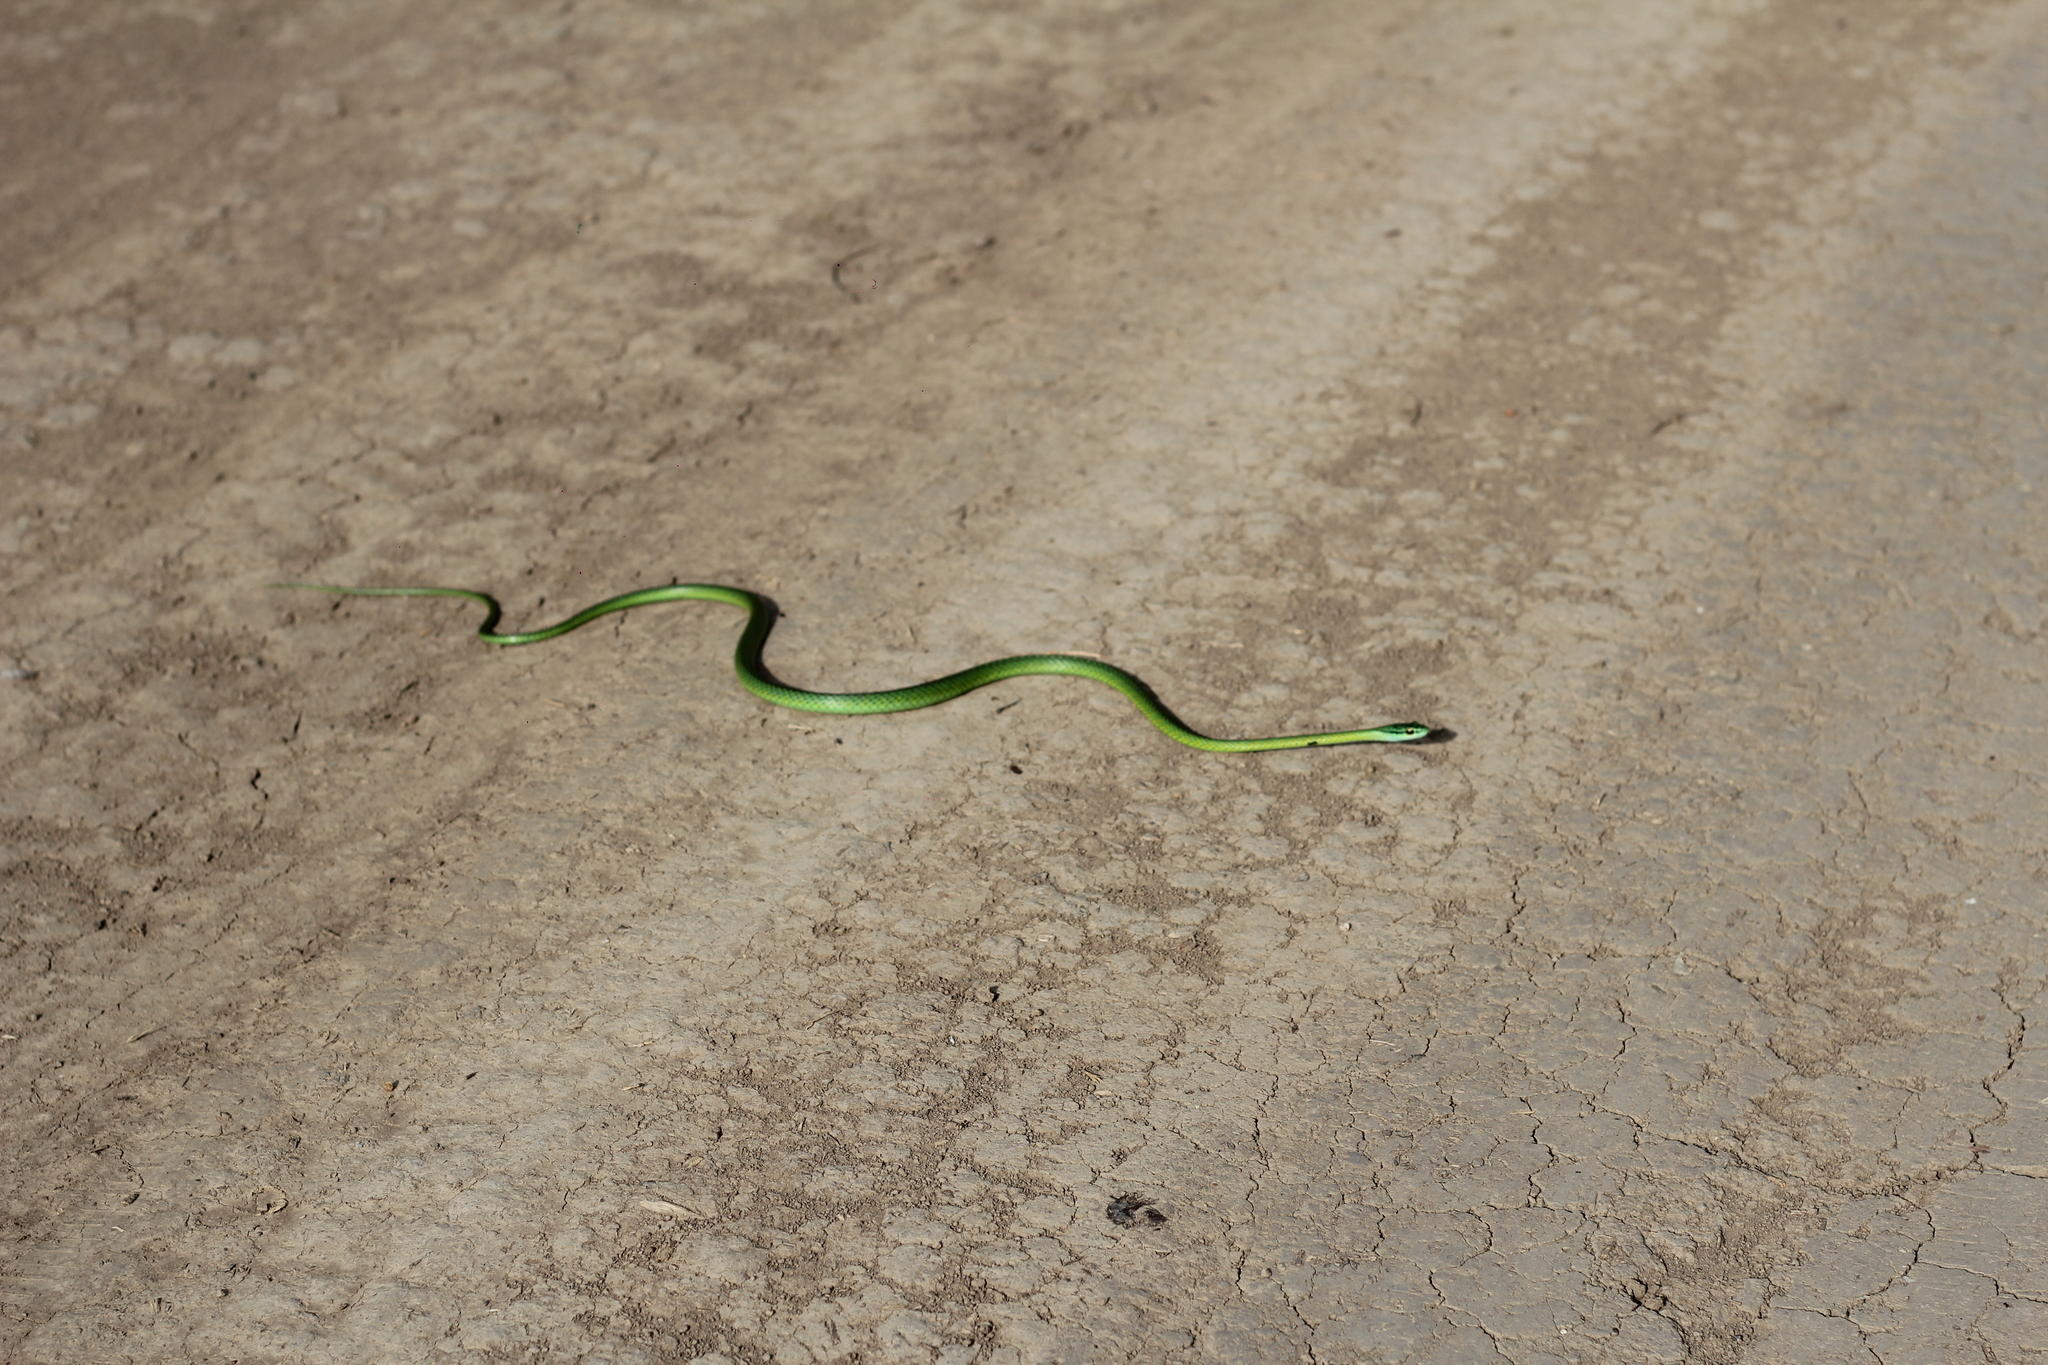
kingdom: Animalia
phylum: Chordata
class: Squamata
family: Colubridae
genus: Leptophis
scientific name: Leptophis ahaetulla
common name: Parrot snake
